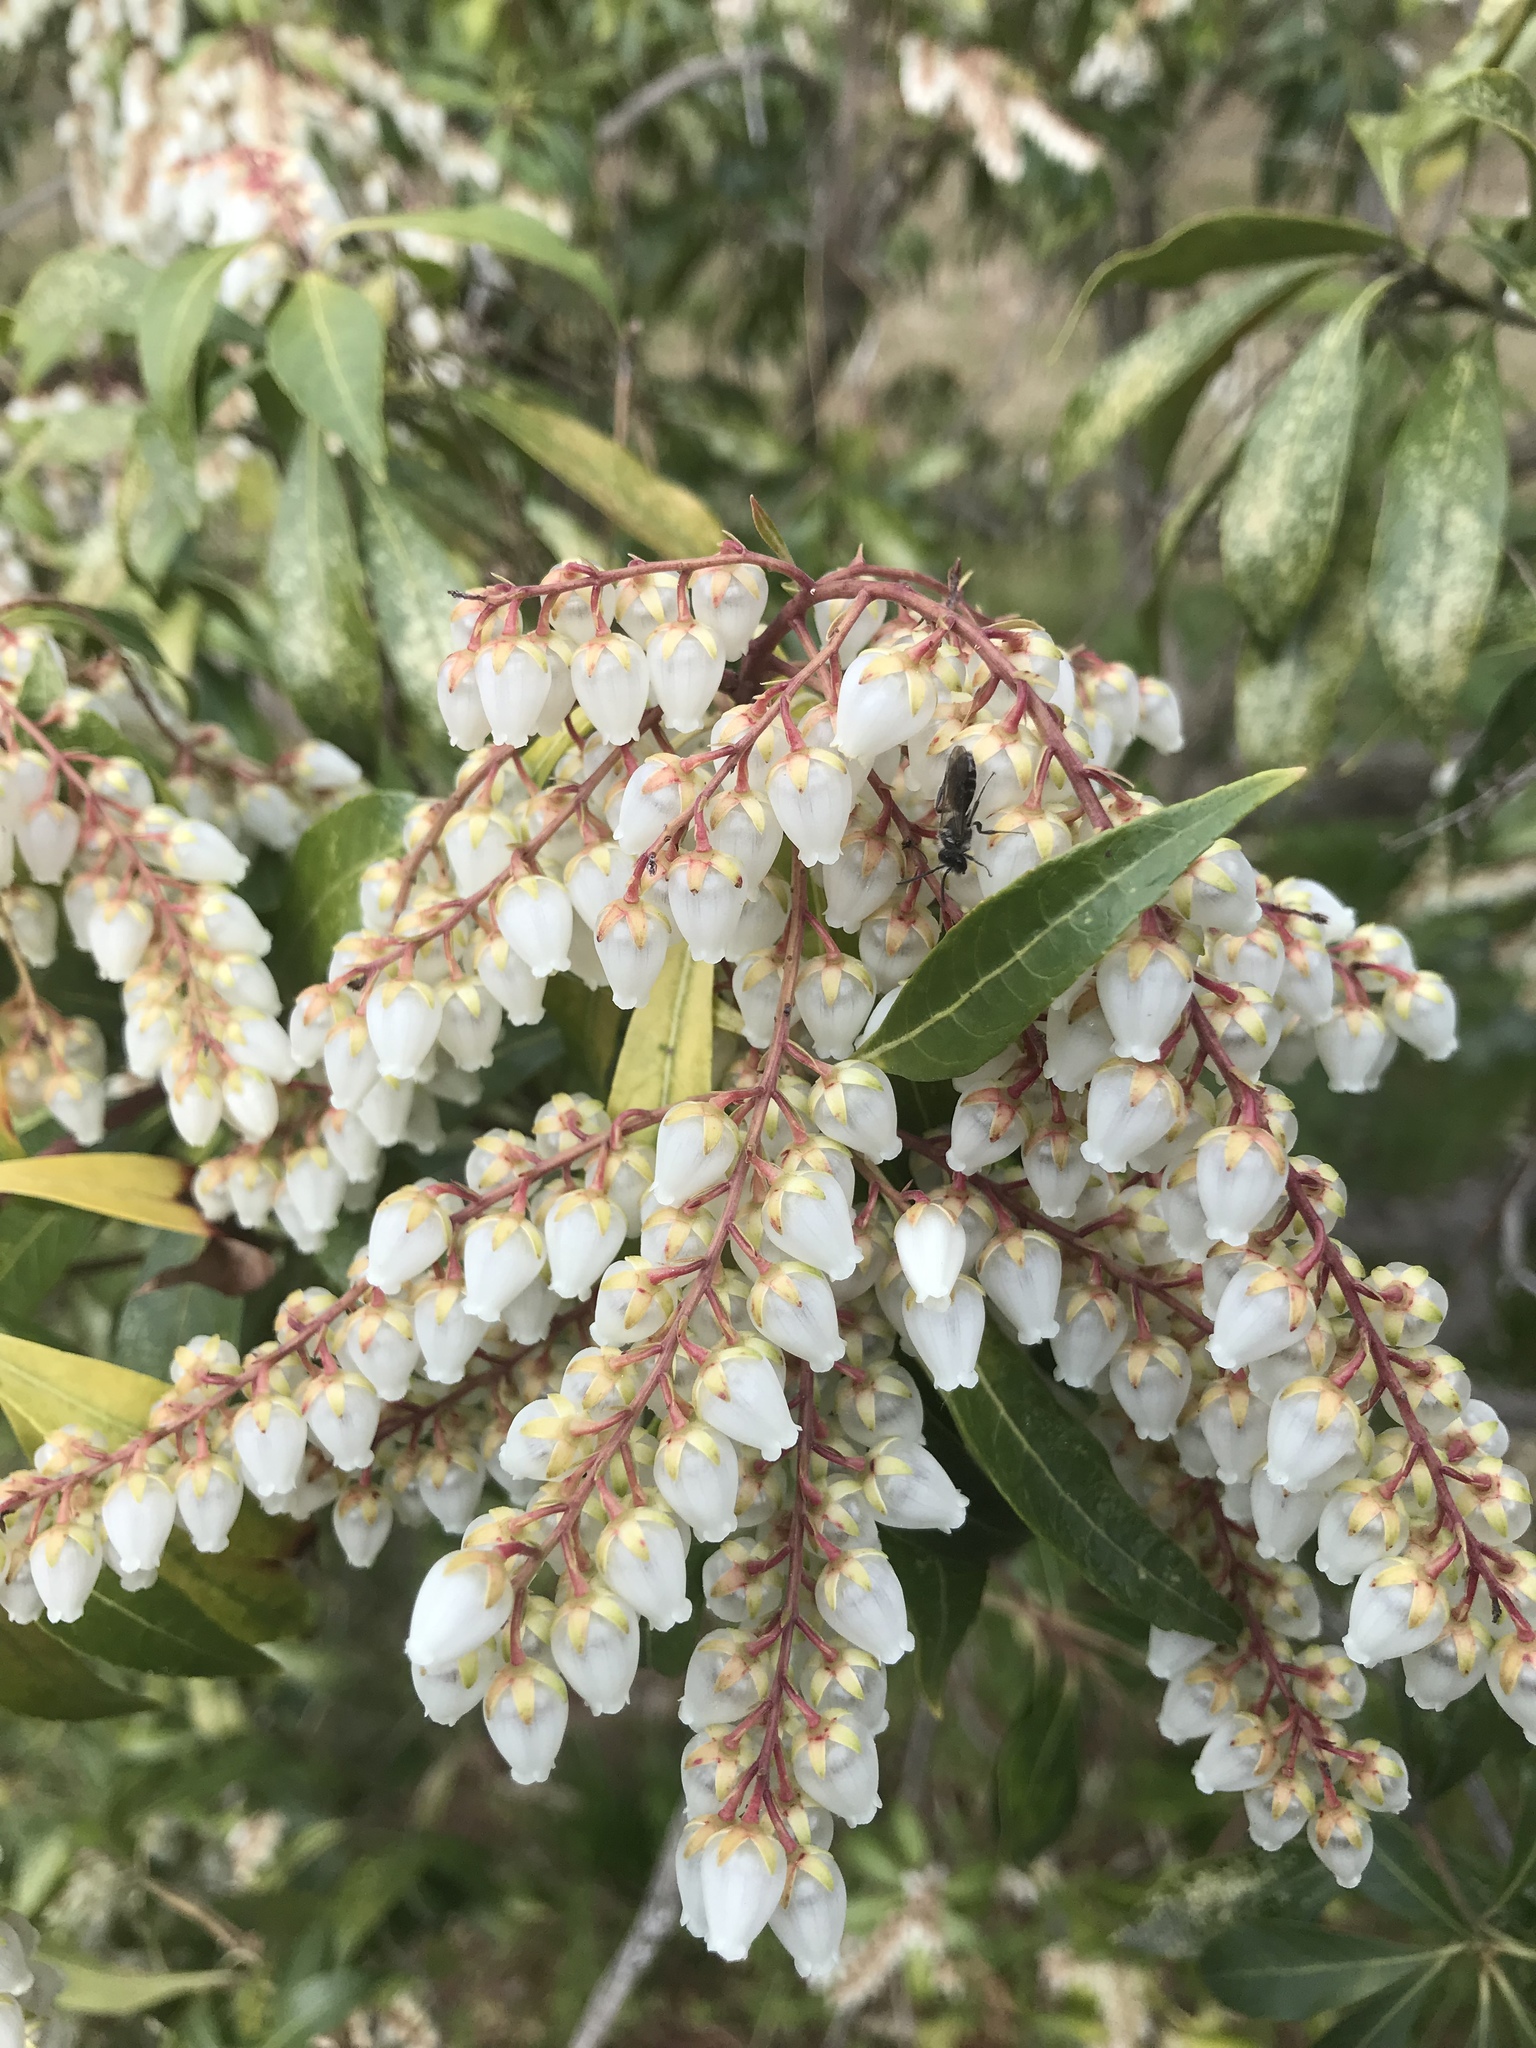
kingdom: Plantae
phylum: Tracheophyta
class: Magnoliopsida
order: Ericales
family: Ericaceae
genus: Pieris
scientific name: Pieris japonica
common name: Japanese pieris
